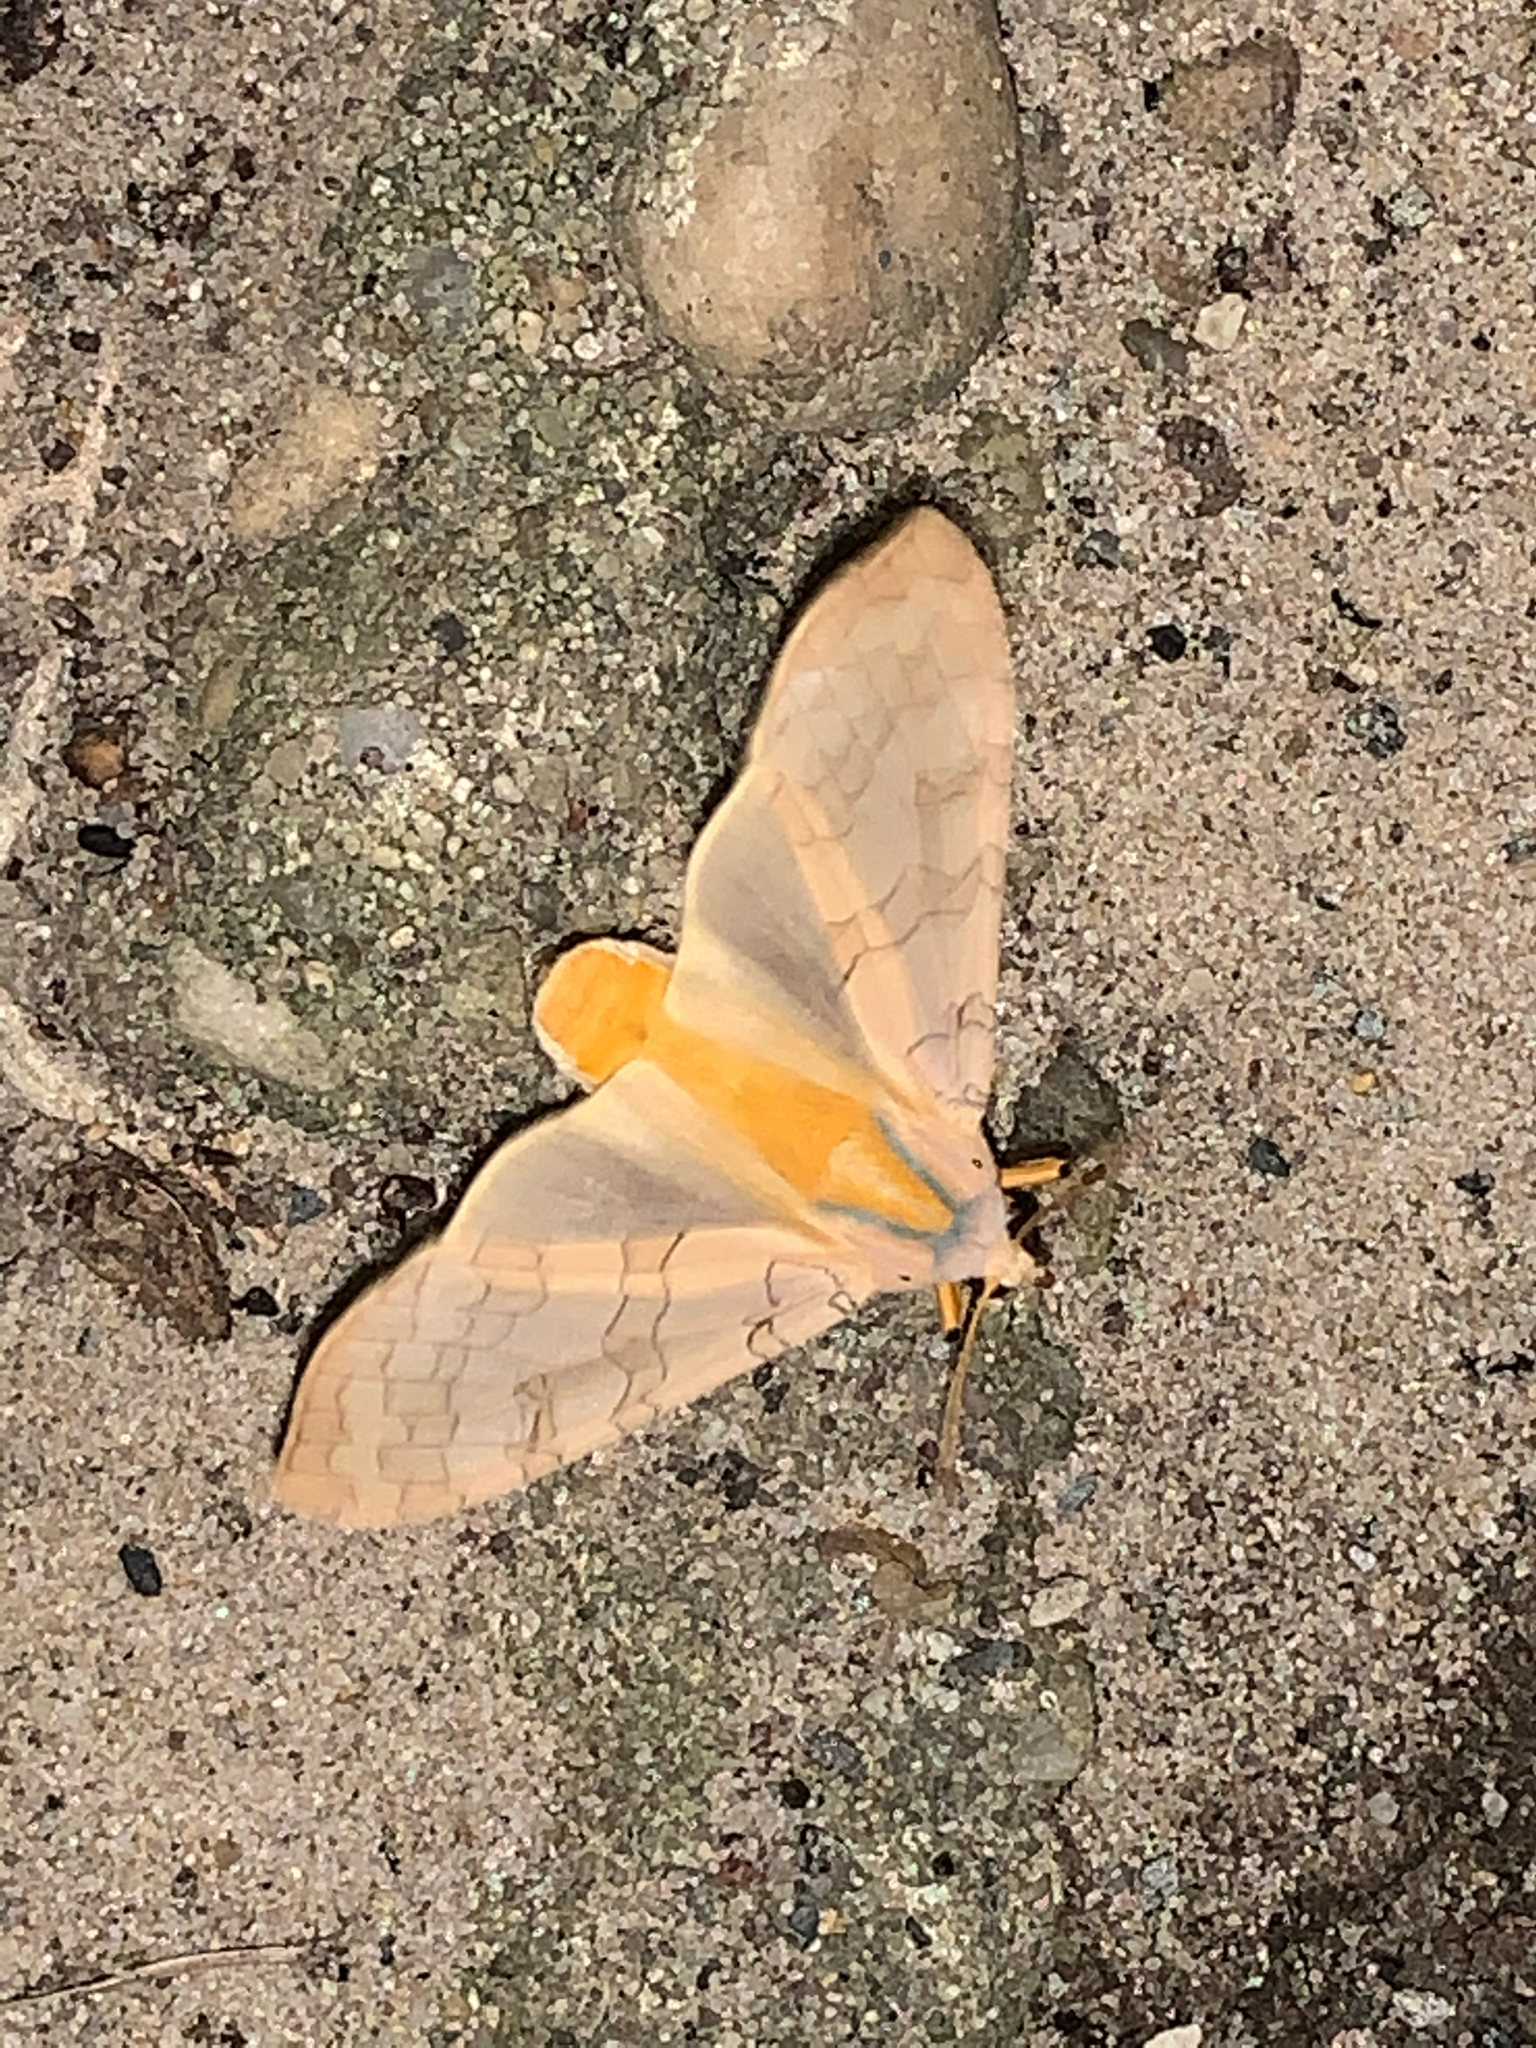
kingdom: Animalia
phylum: Arthropoda
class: Insecta
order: Lepidoptera
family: Erebidae
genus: Halysidota
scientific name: Halysidota
